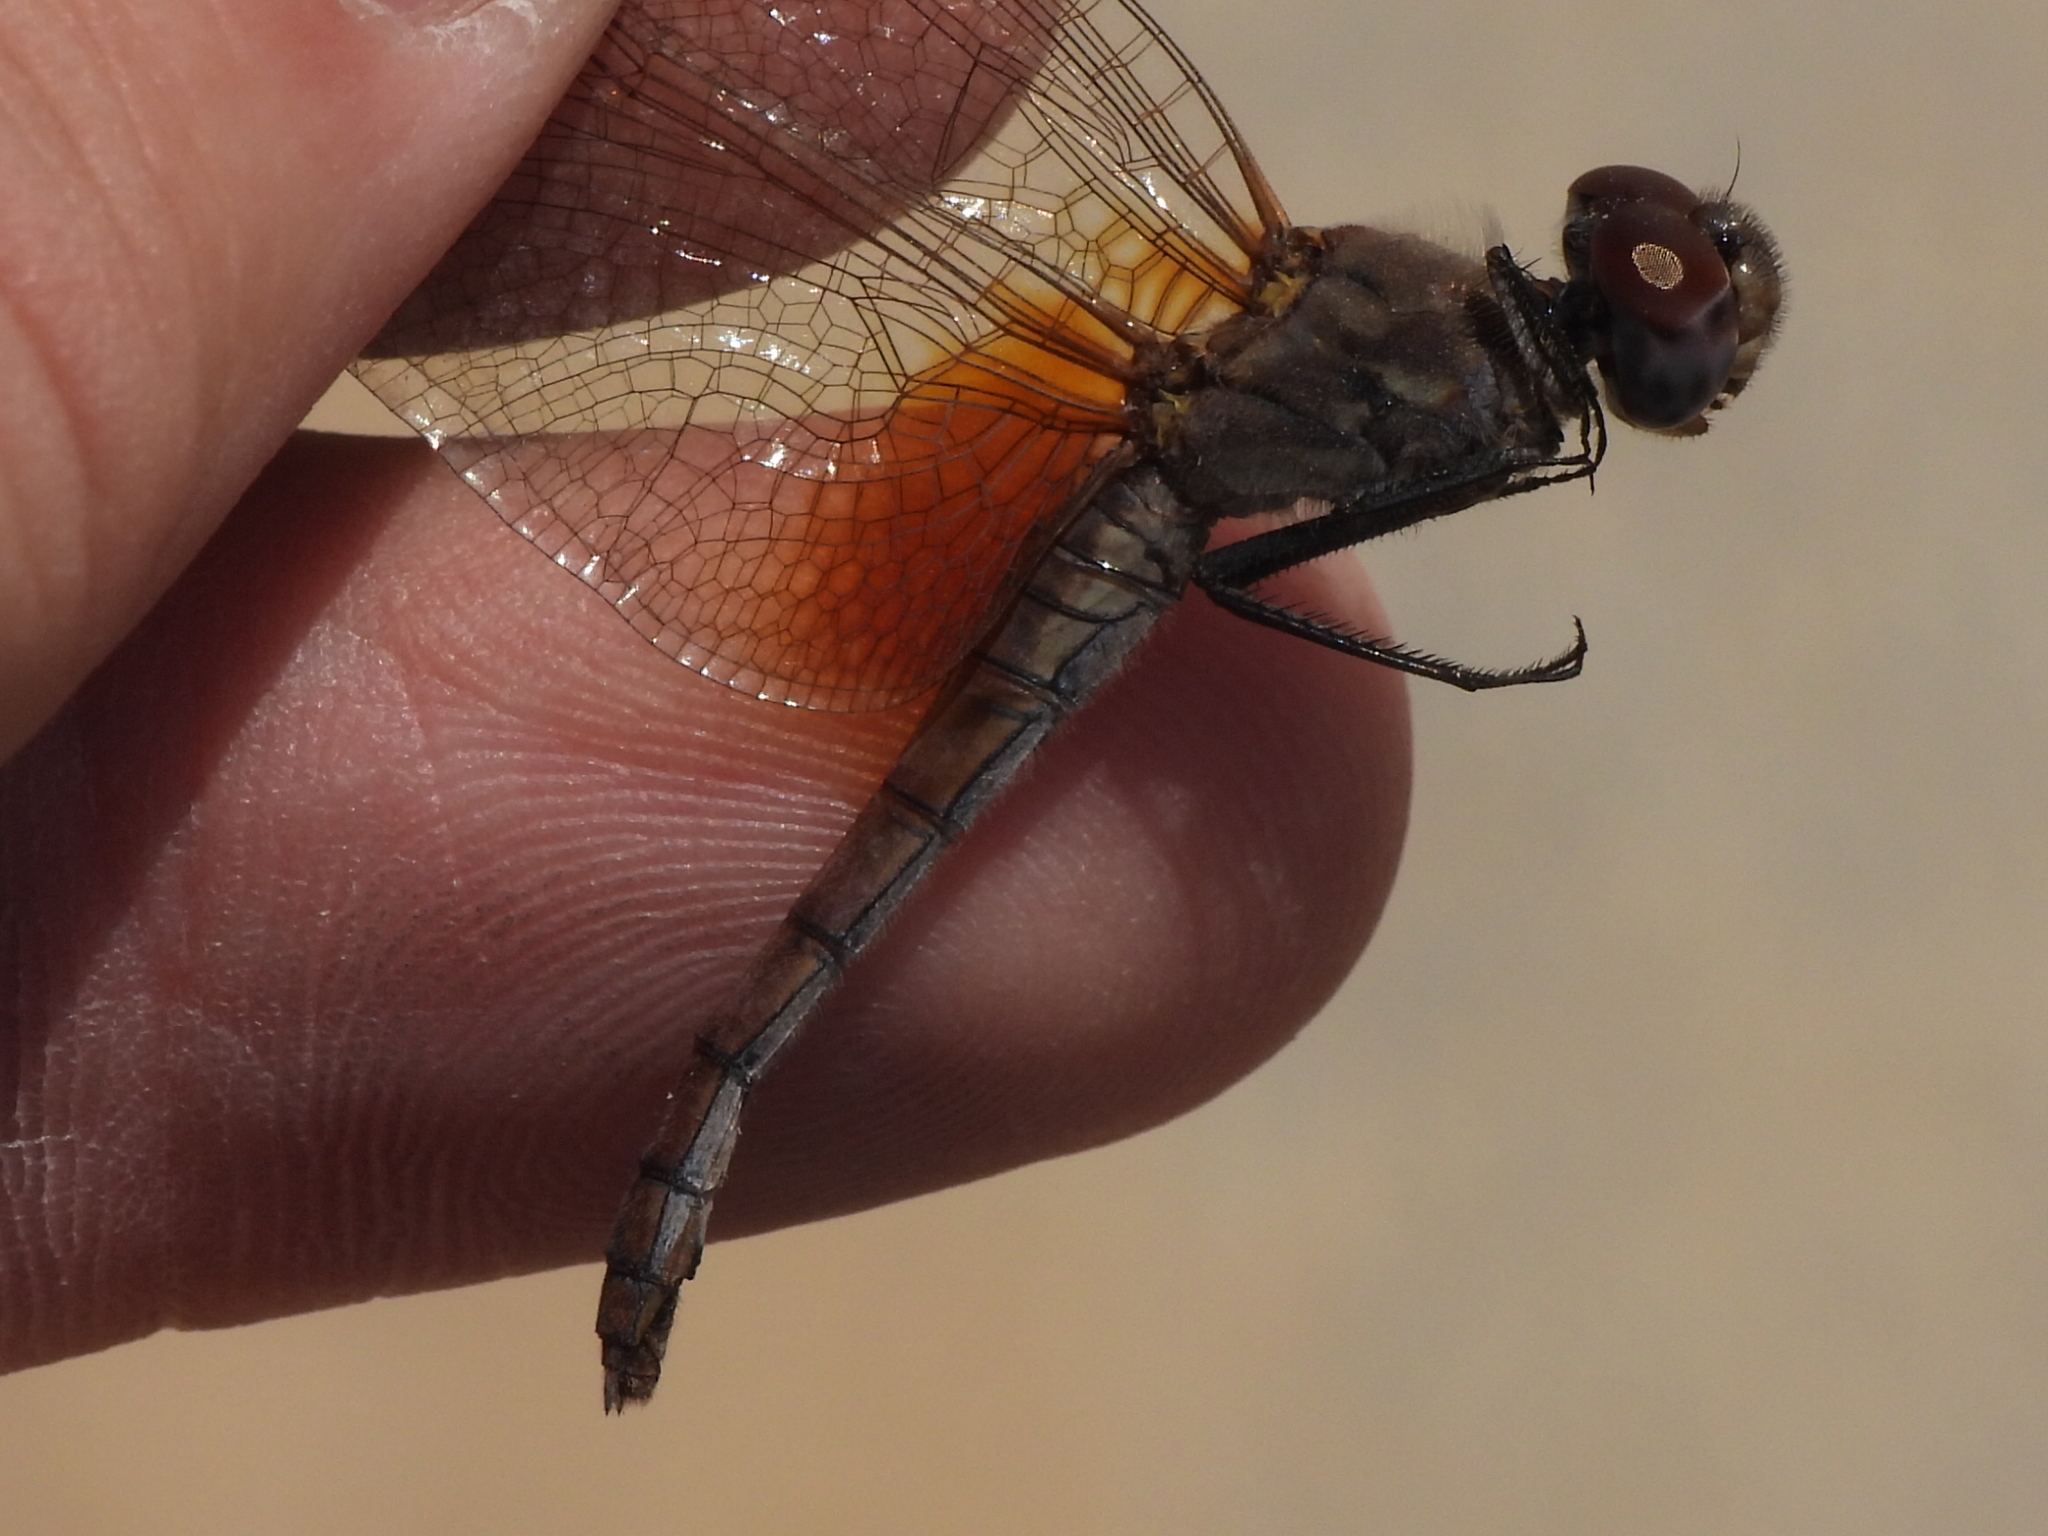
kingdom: Animalia
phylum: Arthropoda
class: Insecta
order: Odonata
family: Libellulidae
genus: Trithemis
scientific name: Trithemis annulata
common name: Violet dropwing
